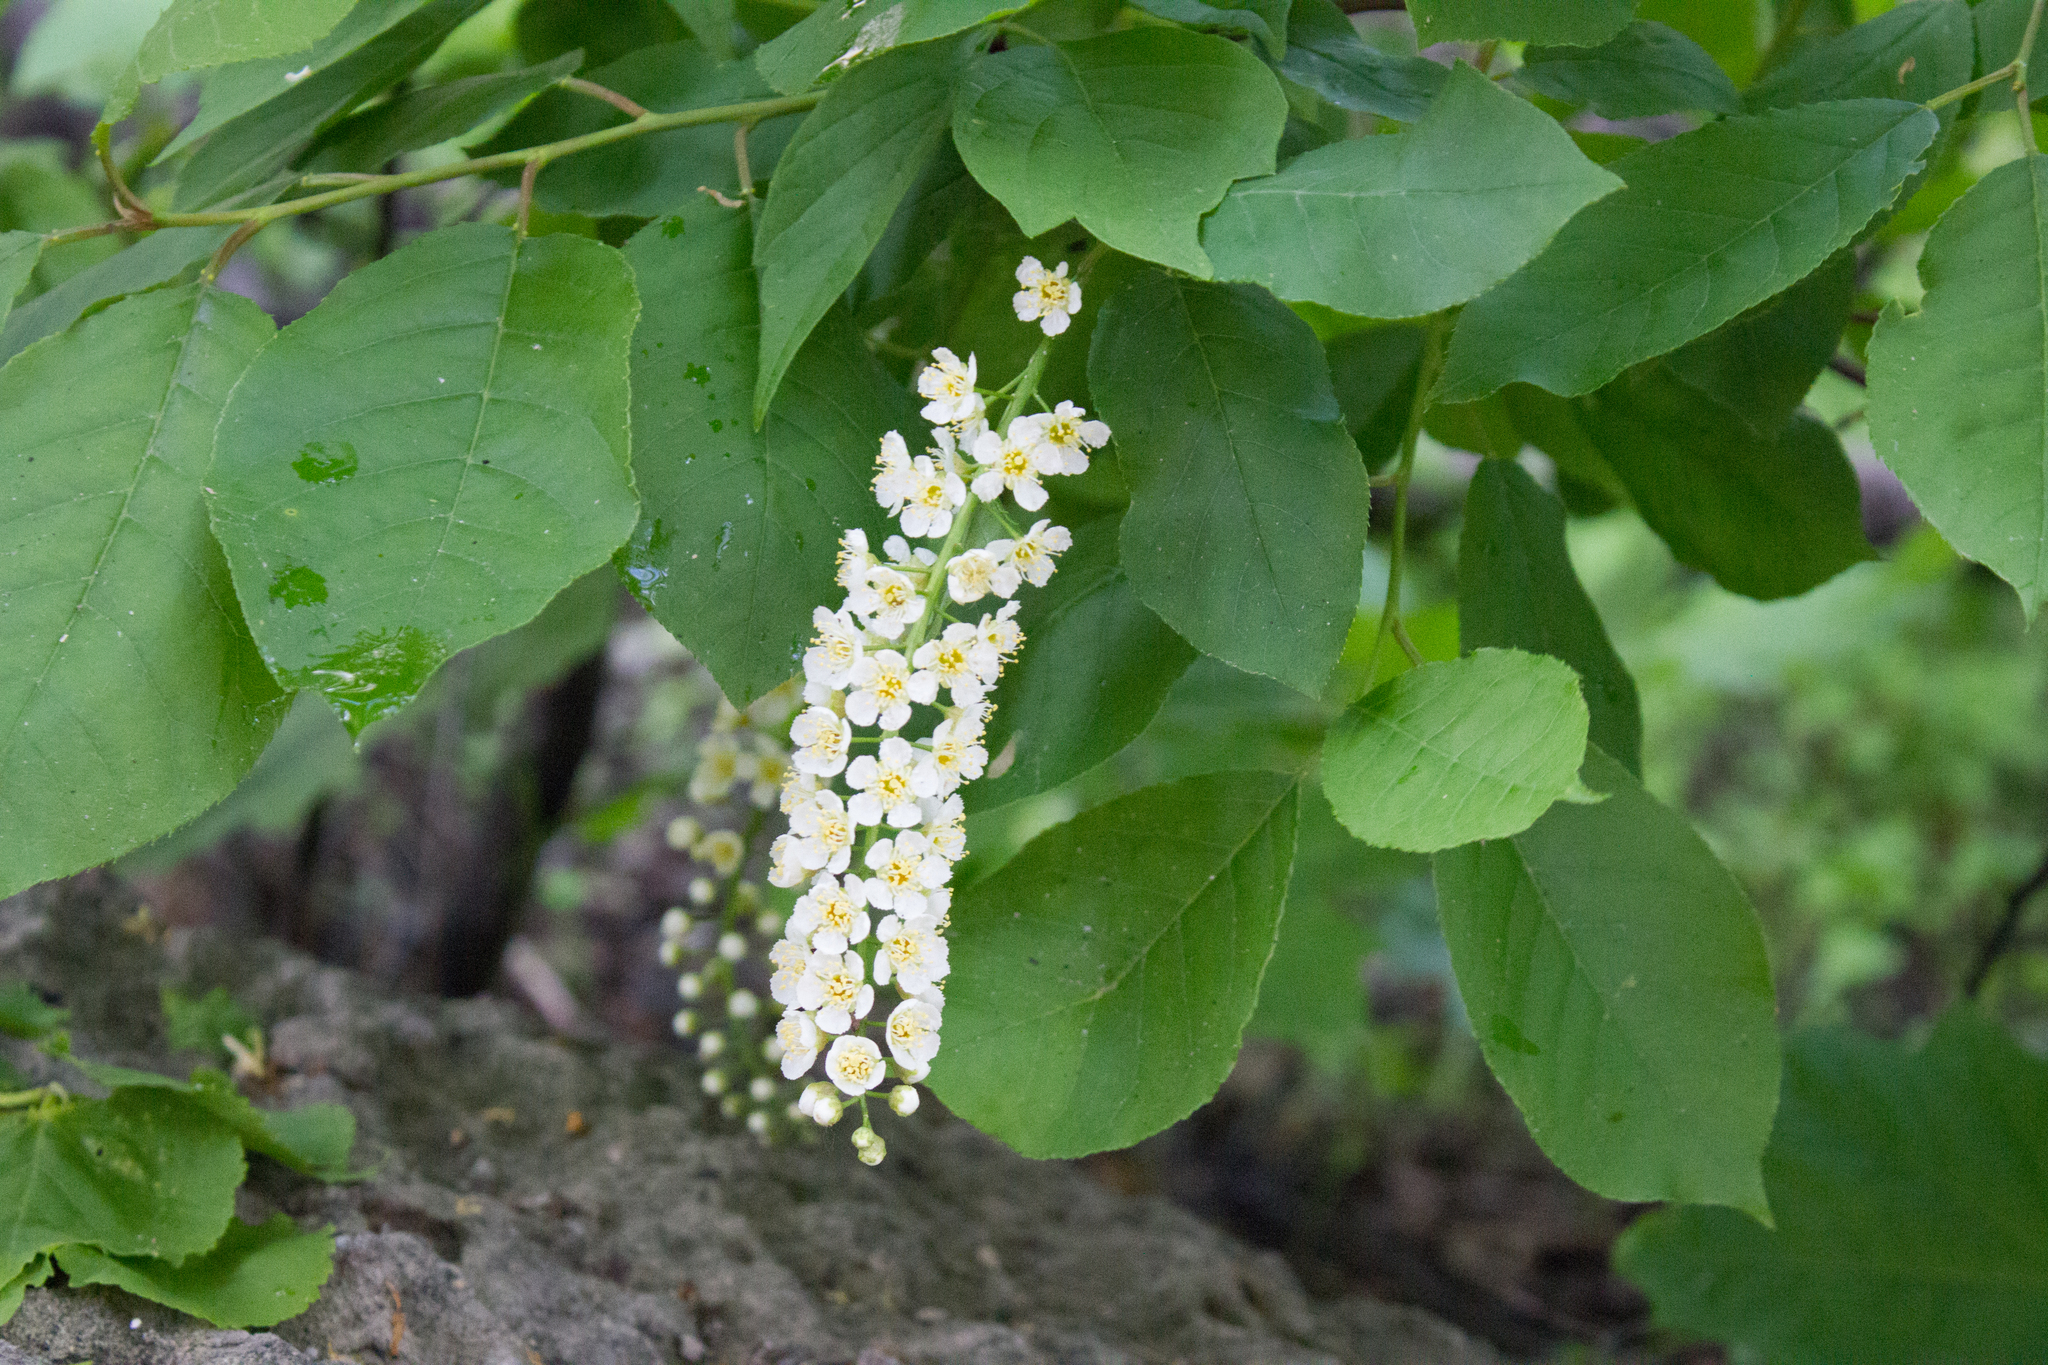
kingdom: Plantae
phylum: Tracheophyta
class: Magnoliopsida
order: Rosales
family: Rosaceae
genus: Prunus
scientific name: Prunus padus
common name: Bird cherry
